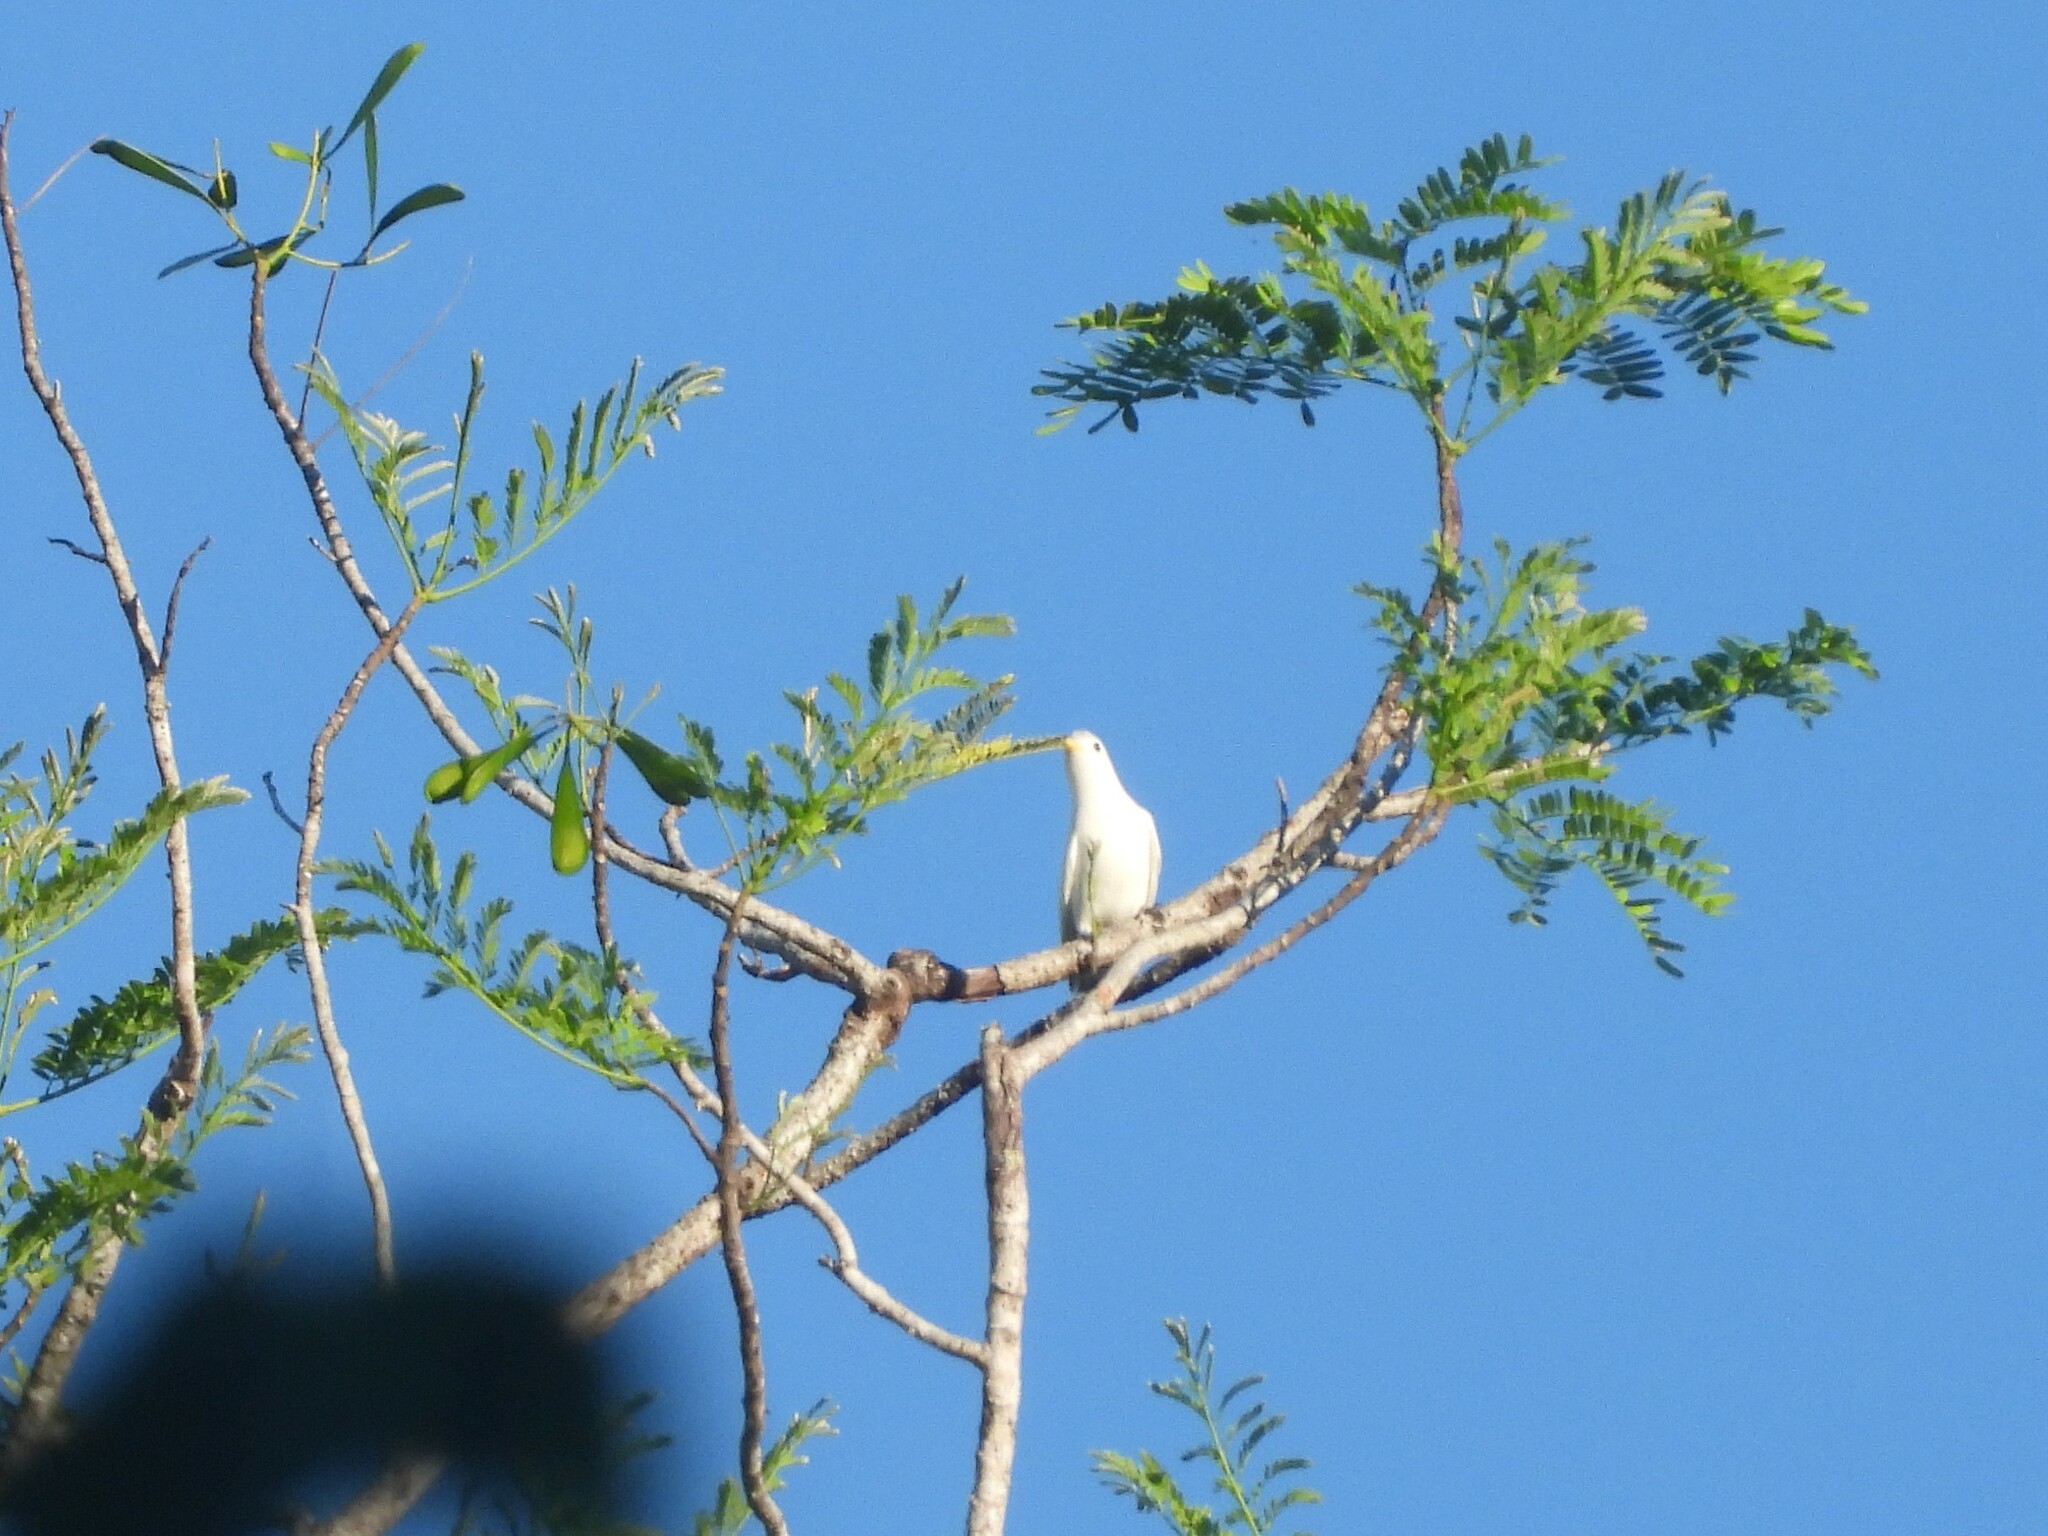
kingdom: Animalia
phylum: Chordata
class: Aves
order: Passeriformes
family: Cotingidae
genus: Carpodectes
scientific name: Carpodectes antoniae
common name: Yellow-billed cotinga
